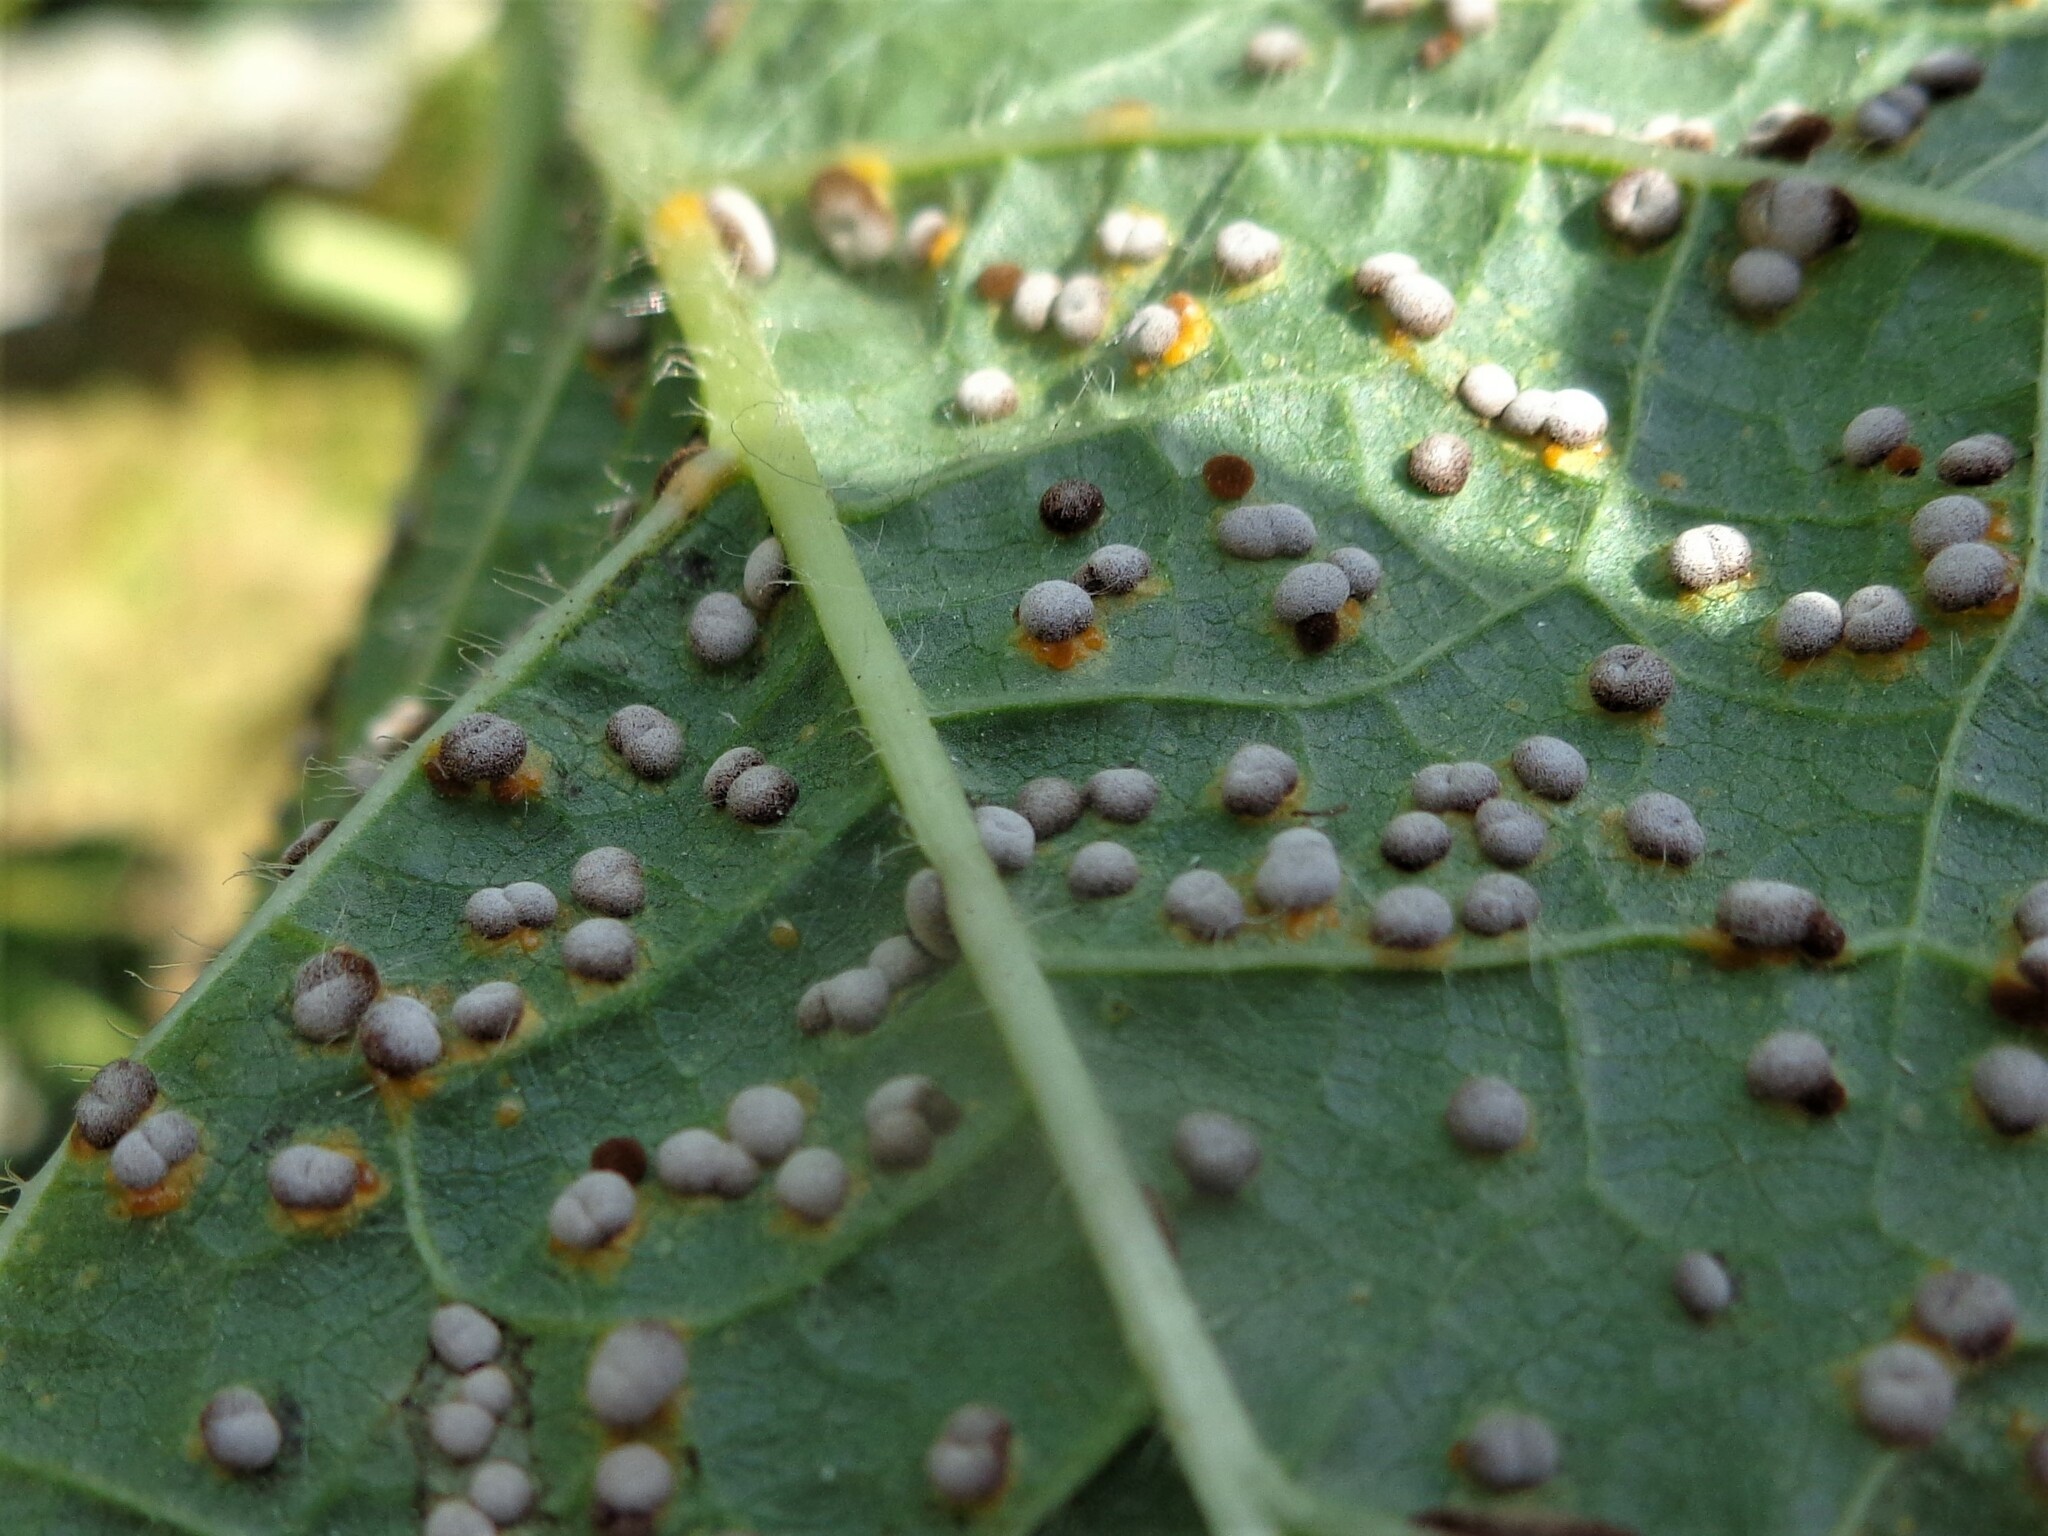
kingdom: Fungi
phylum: Basidiomycota
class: Pucciniomycetes
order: Pucciniales
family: Pucciniaceae
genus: Puccinia
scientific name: Puccinia malvacearum
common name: Hollyhock rust
